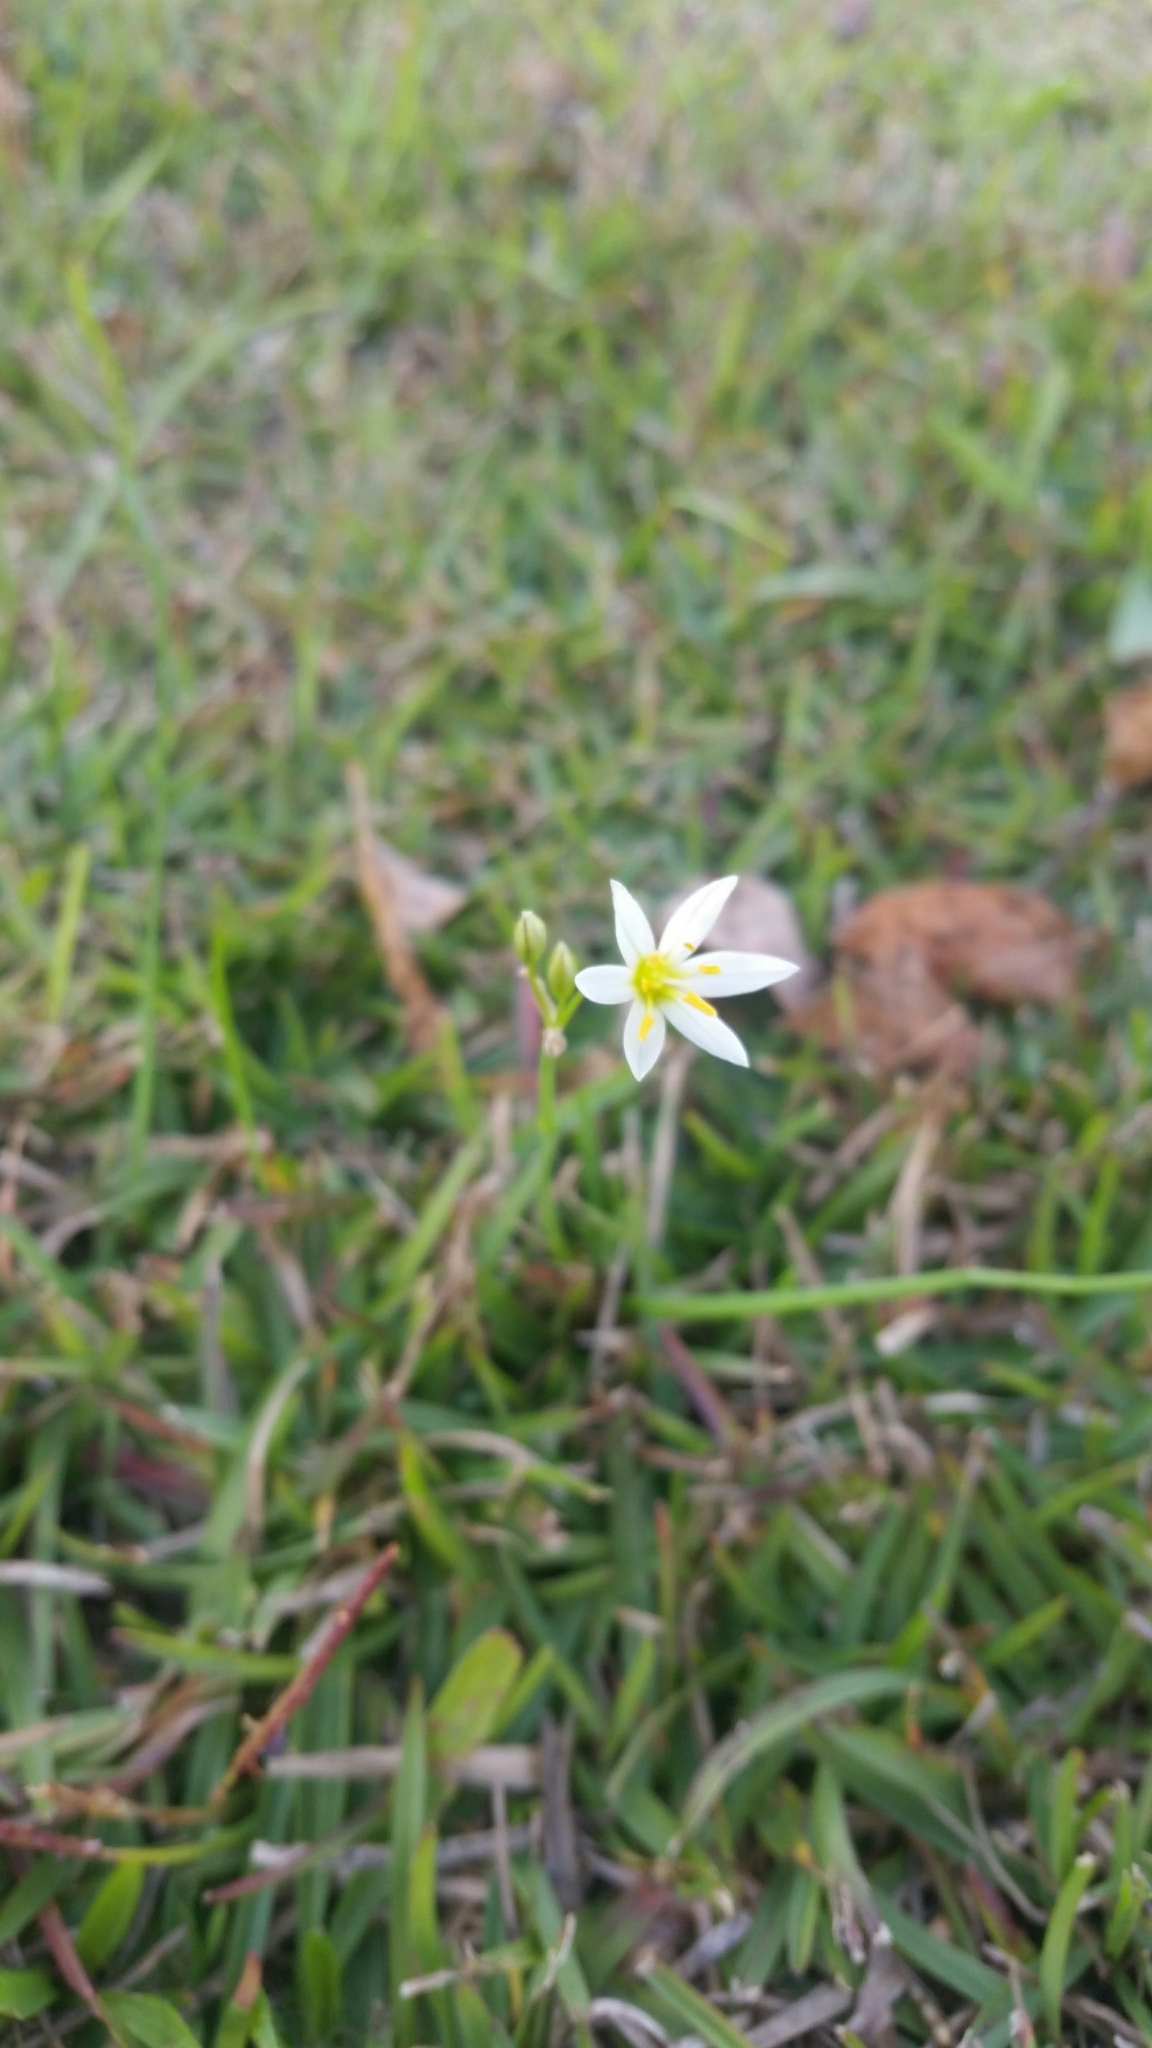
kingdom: Plantae
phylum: Tracheophyta
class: Liliopsida
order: Asparagales
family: Amaryllidaceae
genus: Nothoscordum
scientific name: Nothoscordum bivalve
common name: Crow-poison
